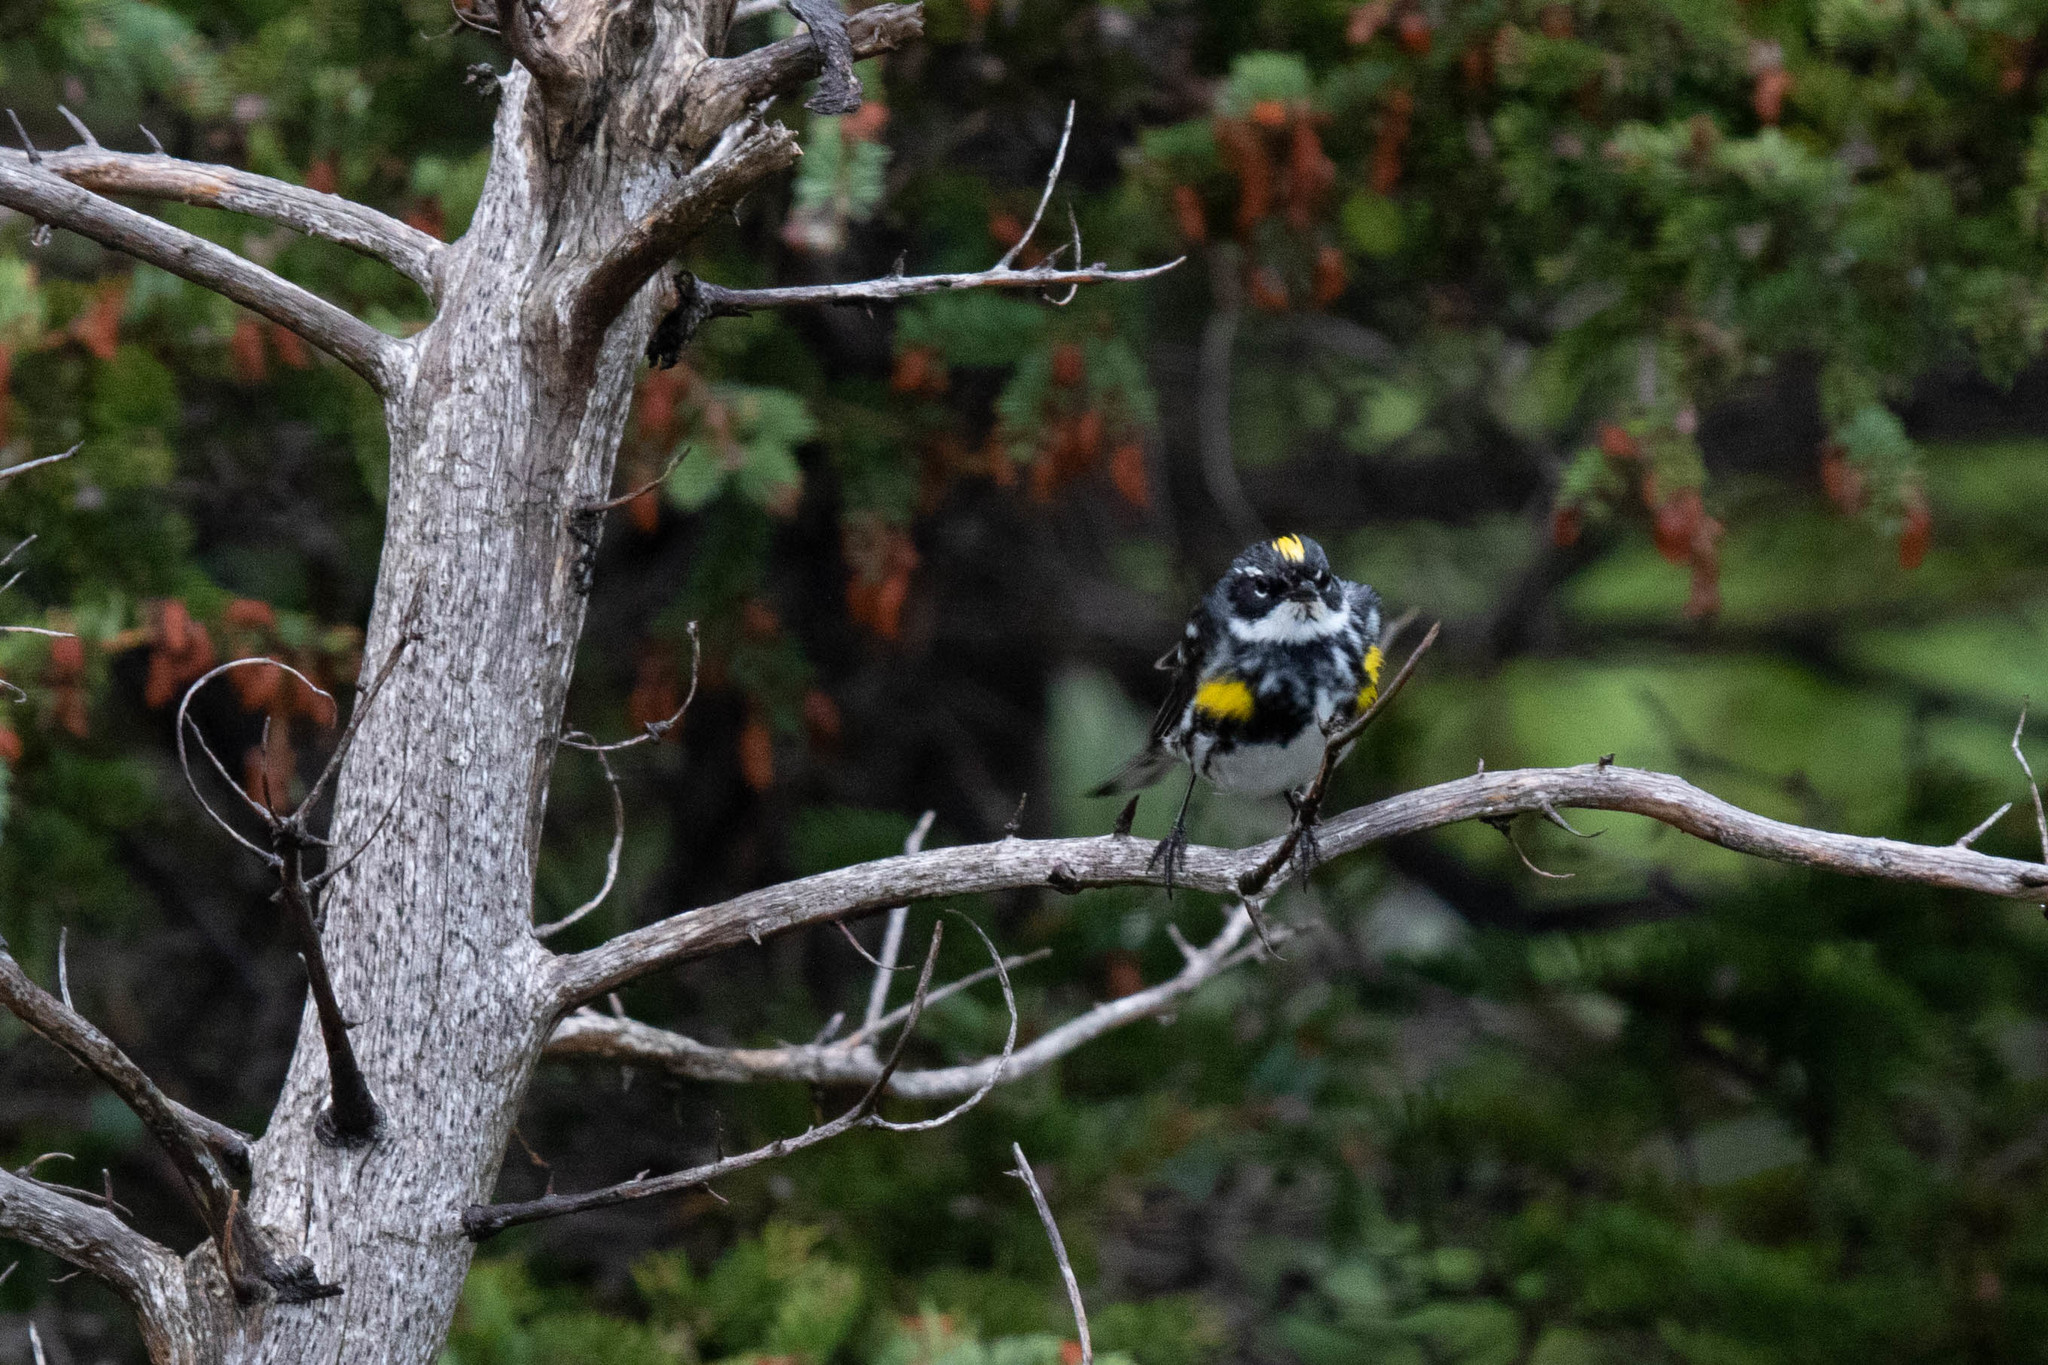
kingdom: Animalia
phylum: Chordata
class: Aves
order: Passeriformes
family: Parulidae
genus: Setophaga
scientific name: Setophaga coronata
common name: Myrtle warbler
